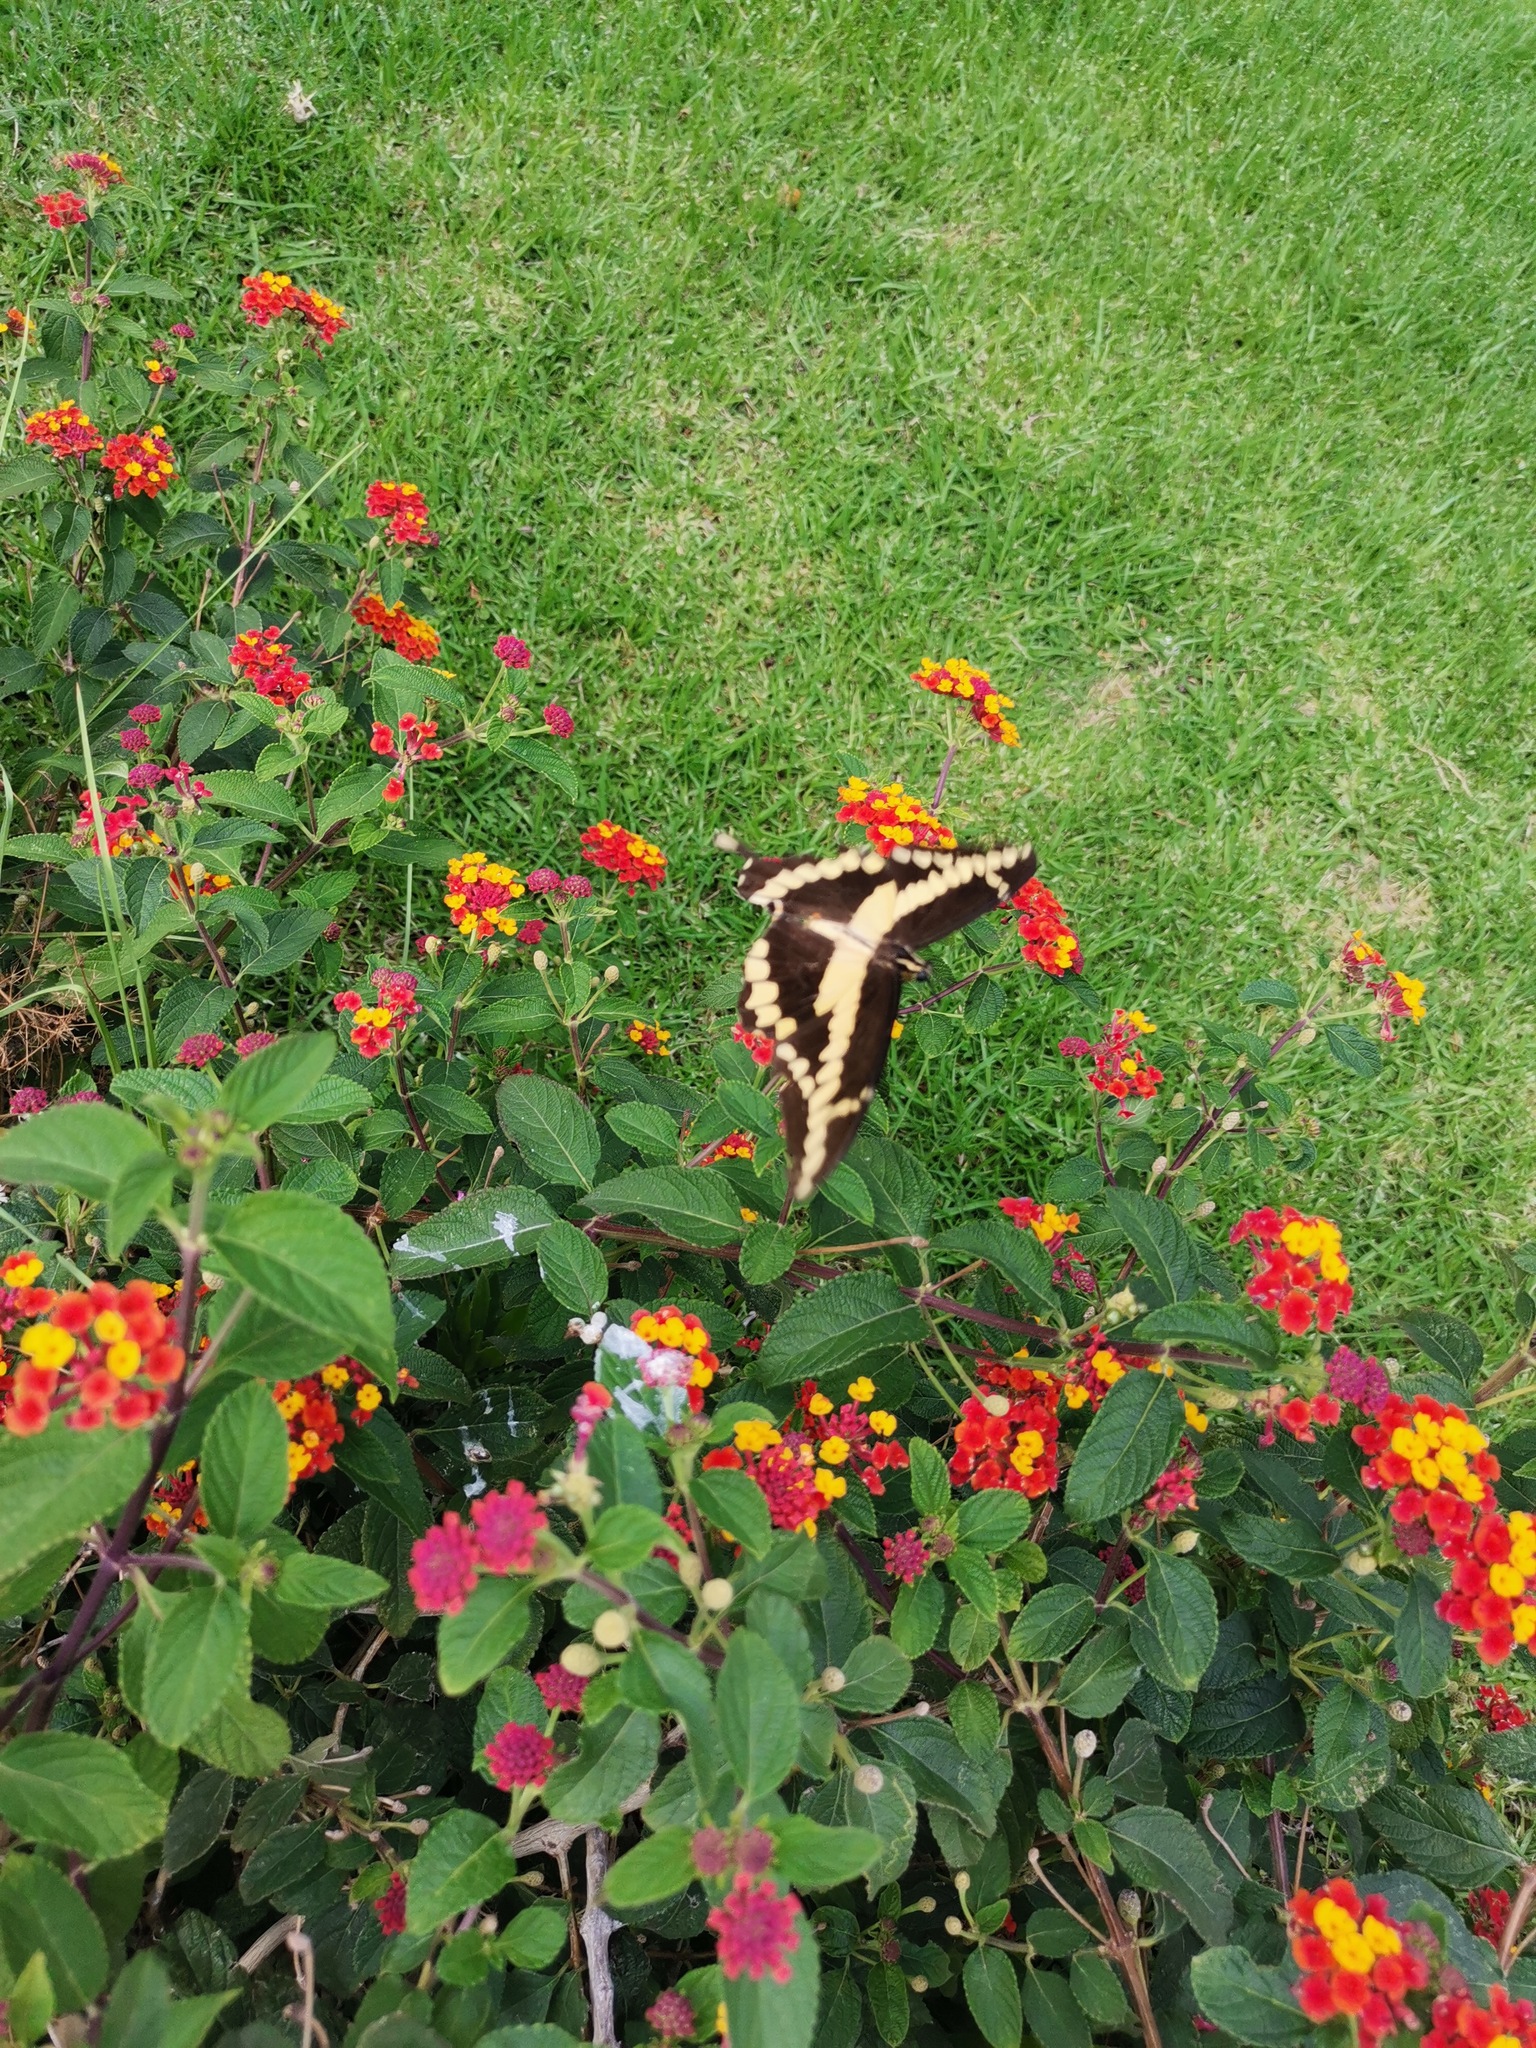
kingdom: Animalia
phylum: Arthropoda
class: Insecta
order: Lepidoptera
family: Papilionidae
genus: Papilio
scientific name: Papilio rumiko
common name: Western giant swallowtail
